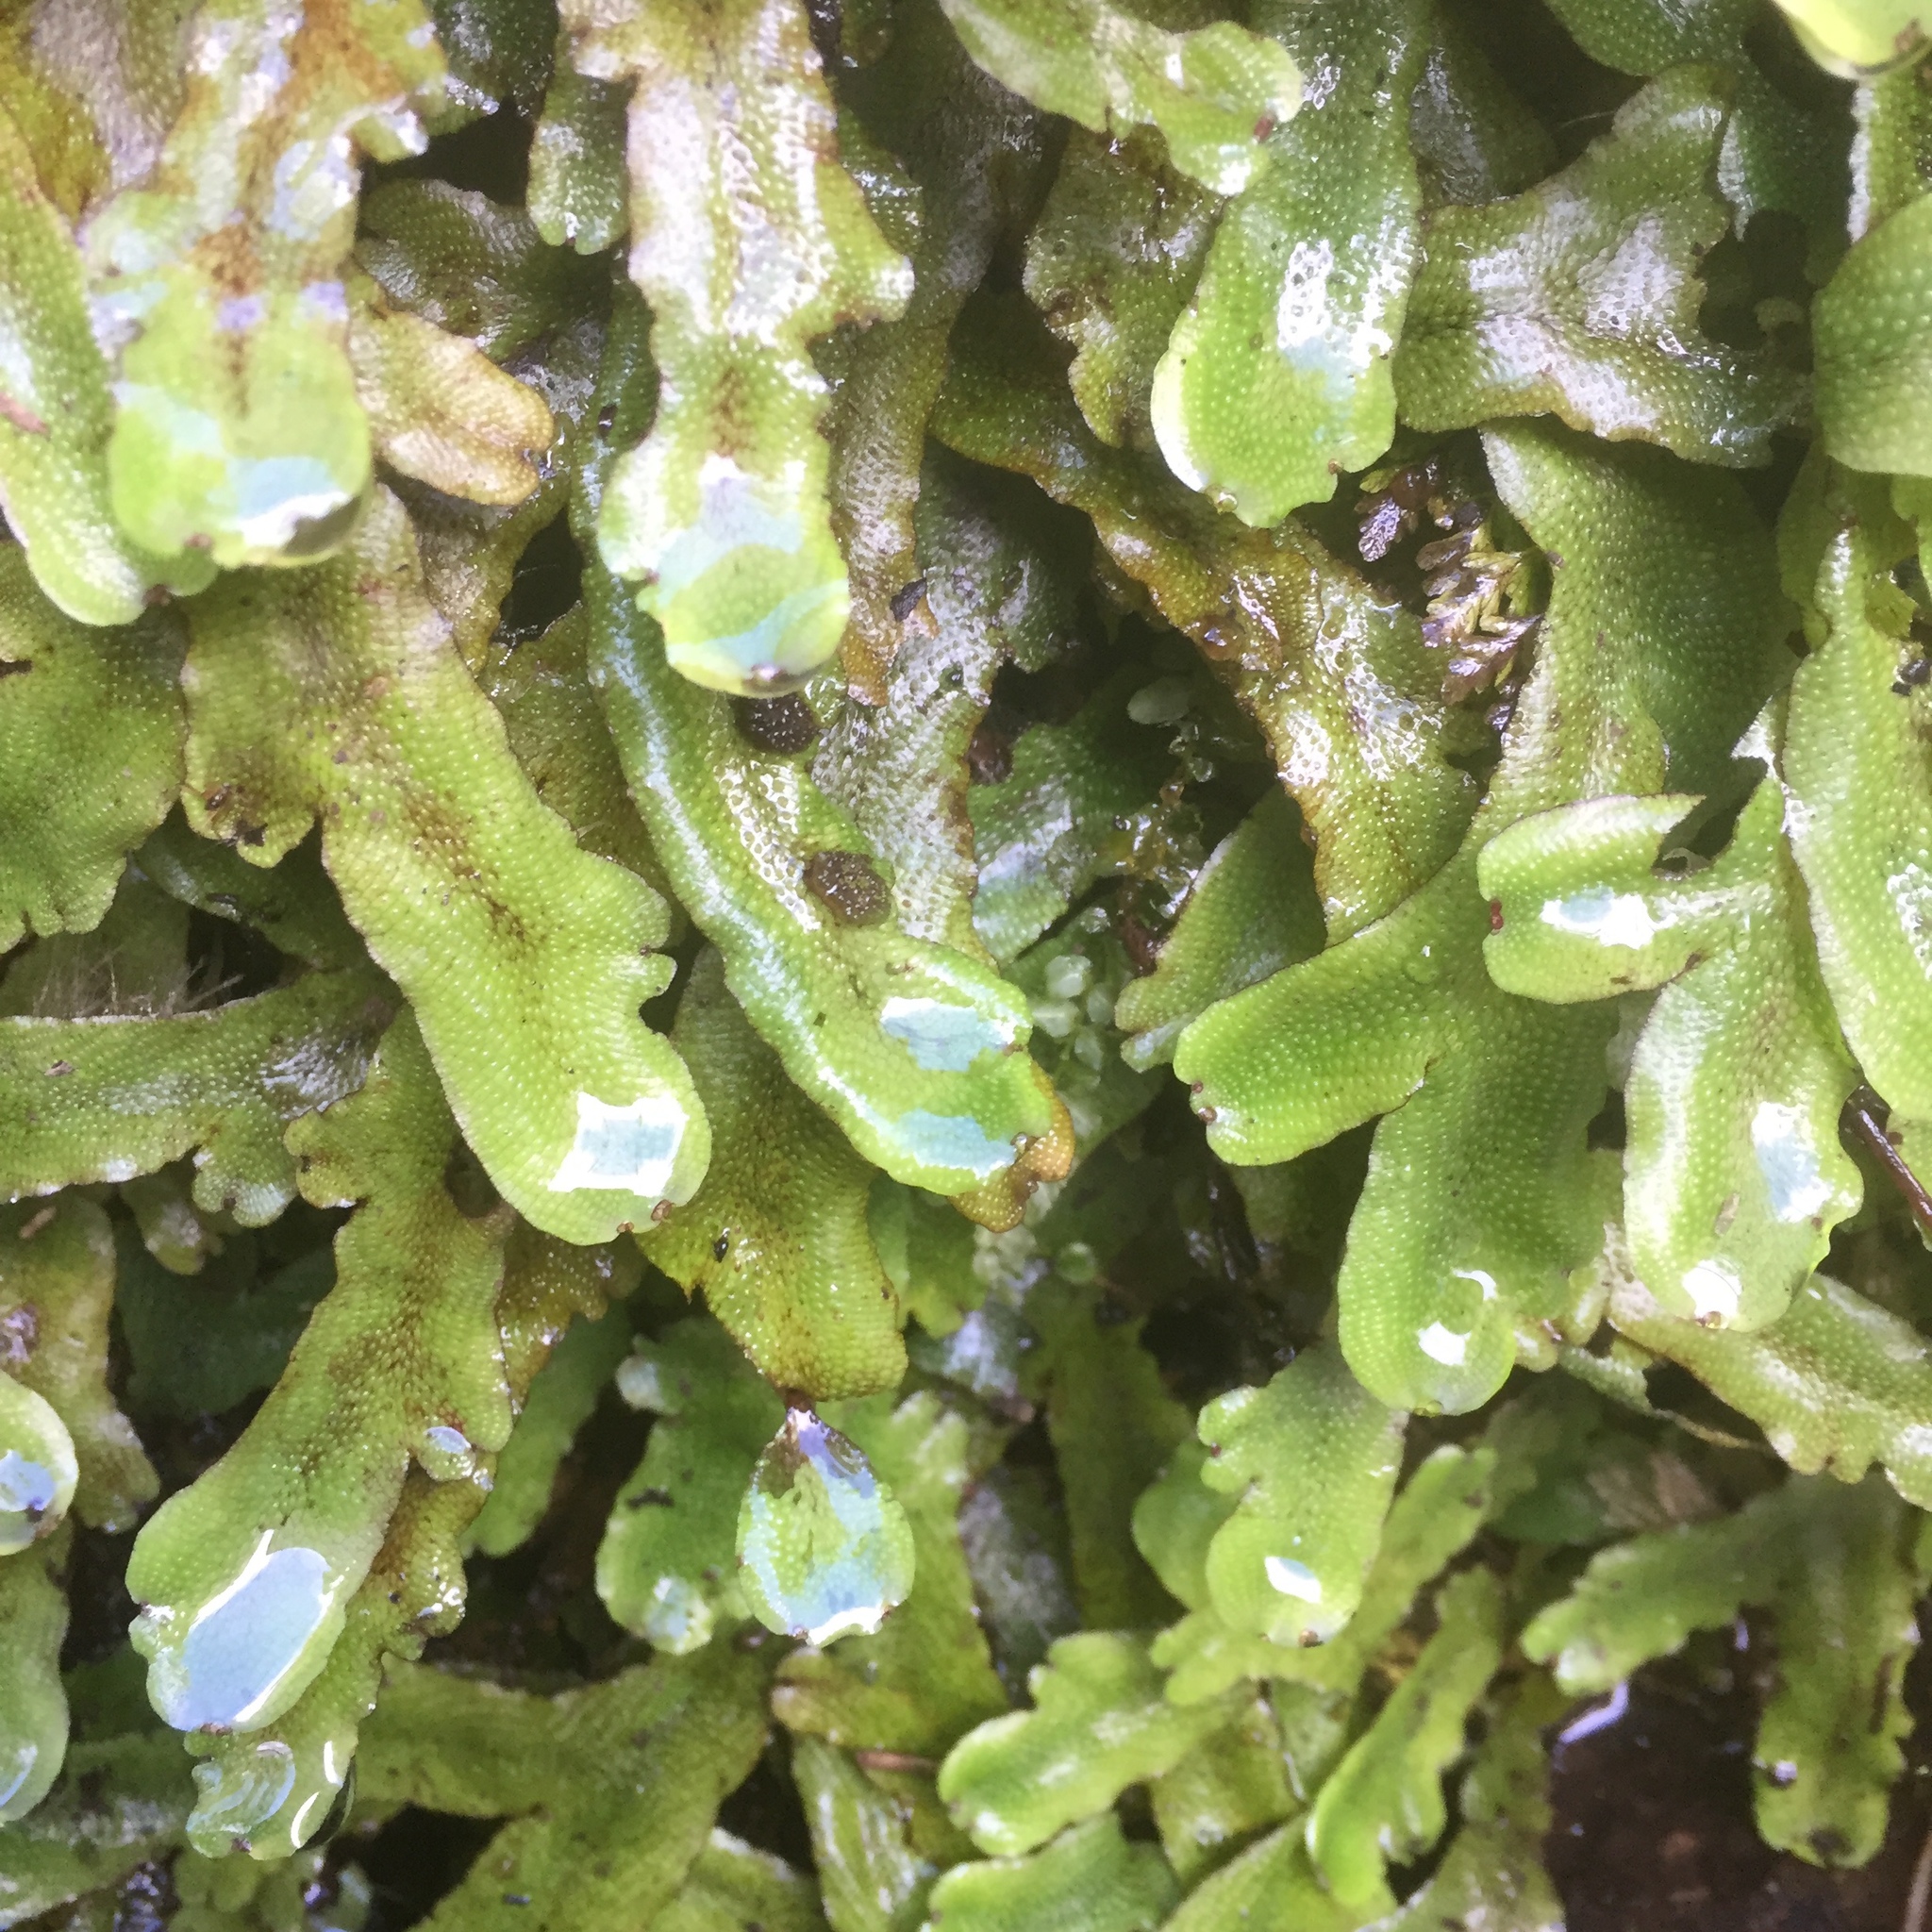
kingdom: Plantae
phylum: Marchantiophyta
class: Marchantiopsida
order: Marchantiales
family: Conocephalaceae
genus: Conocephalum
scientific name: Conocephalum conicum
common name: Great scented liverwort
